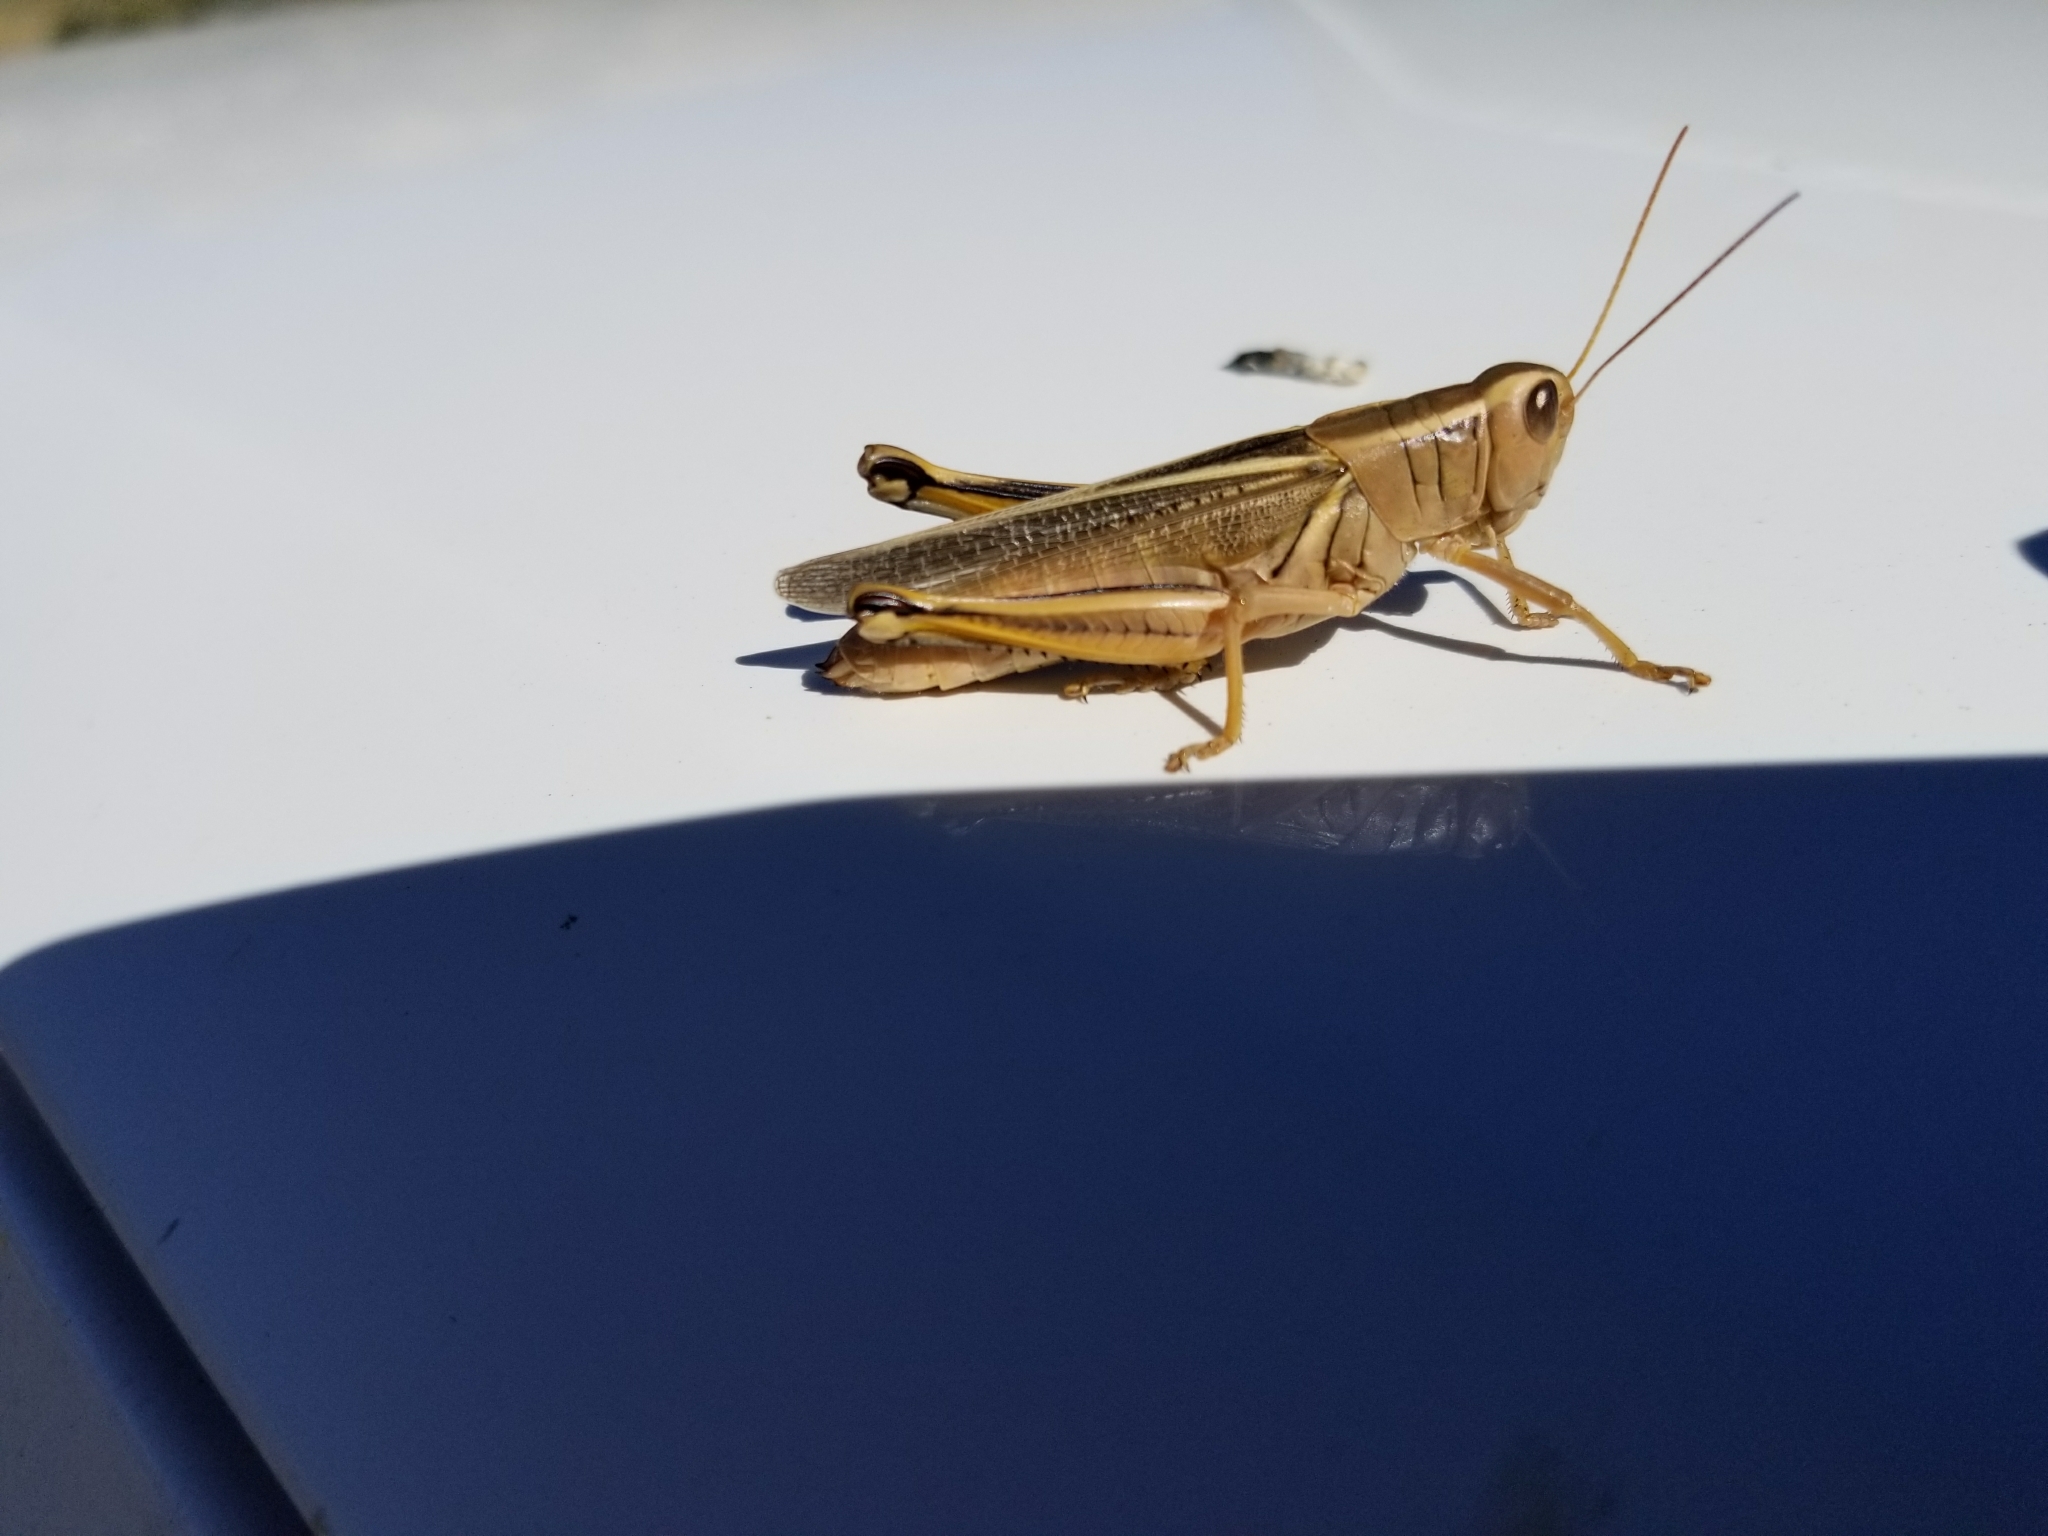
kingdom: Animalia
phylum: Arthropoda
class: Insecta
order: Orthoptera
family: Acrididae
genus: Melanoplus
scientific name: Melanoplus bivittatus
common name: Two-striped grasshopper
